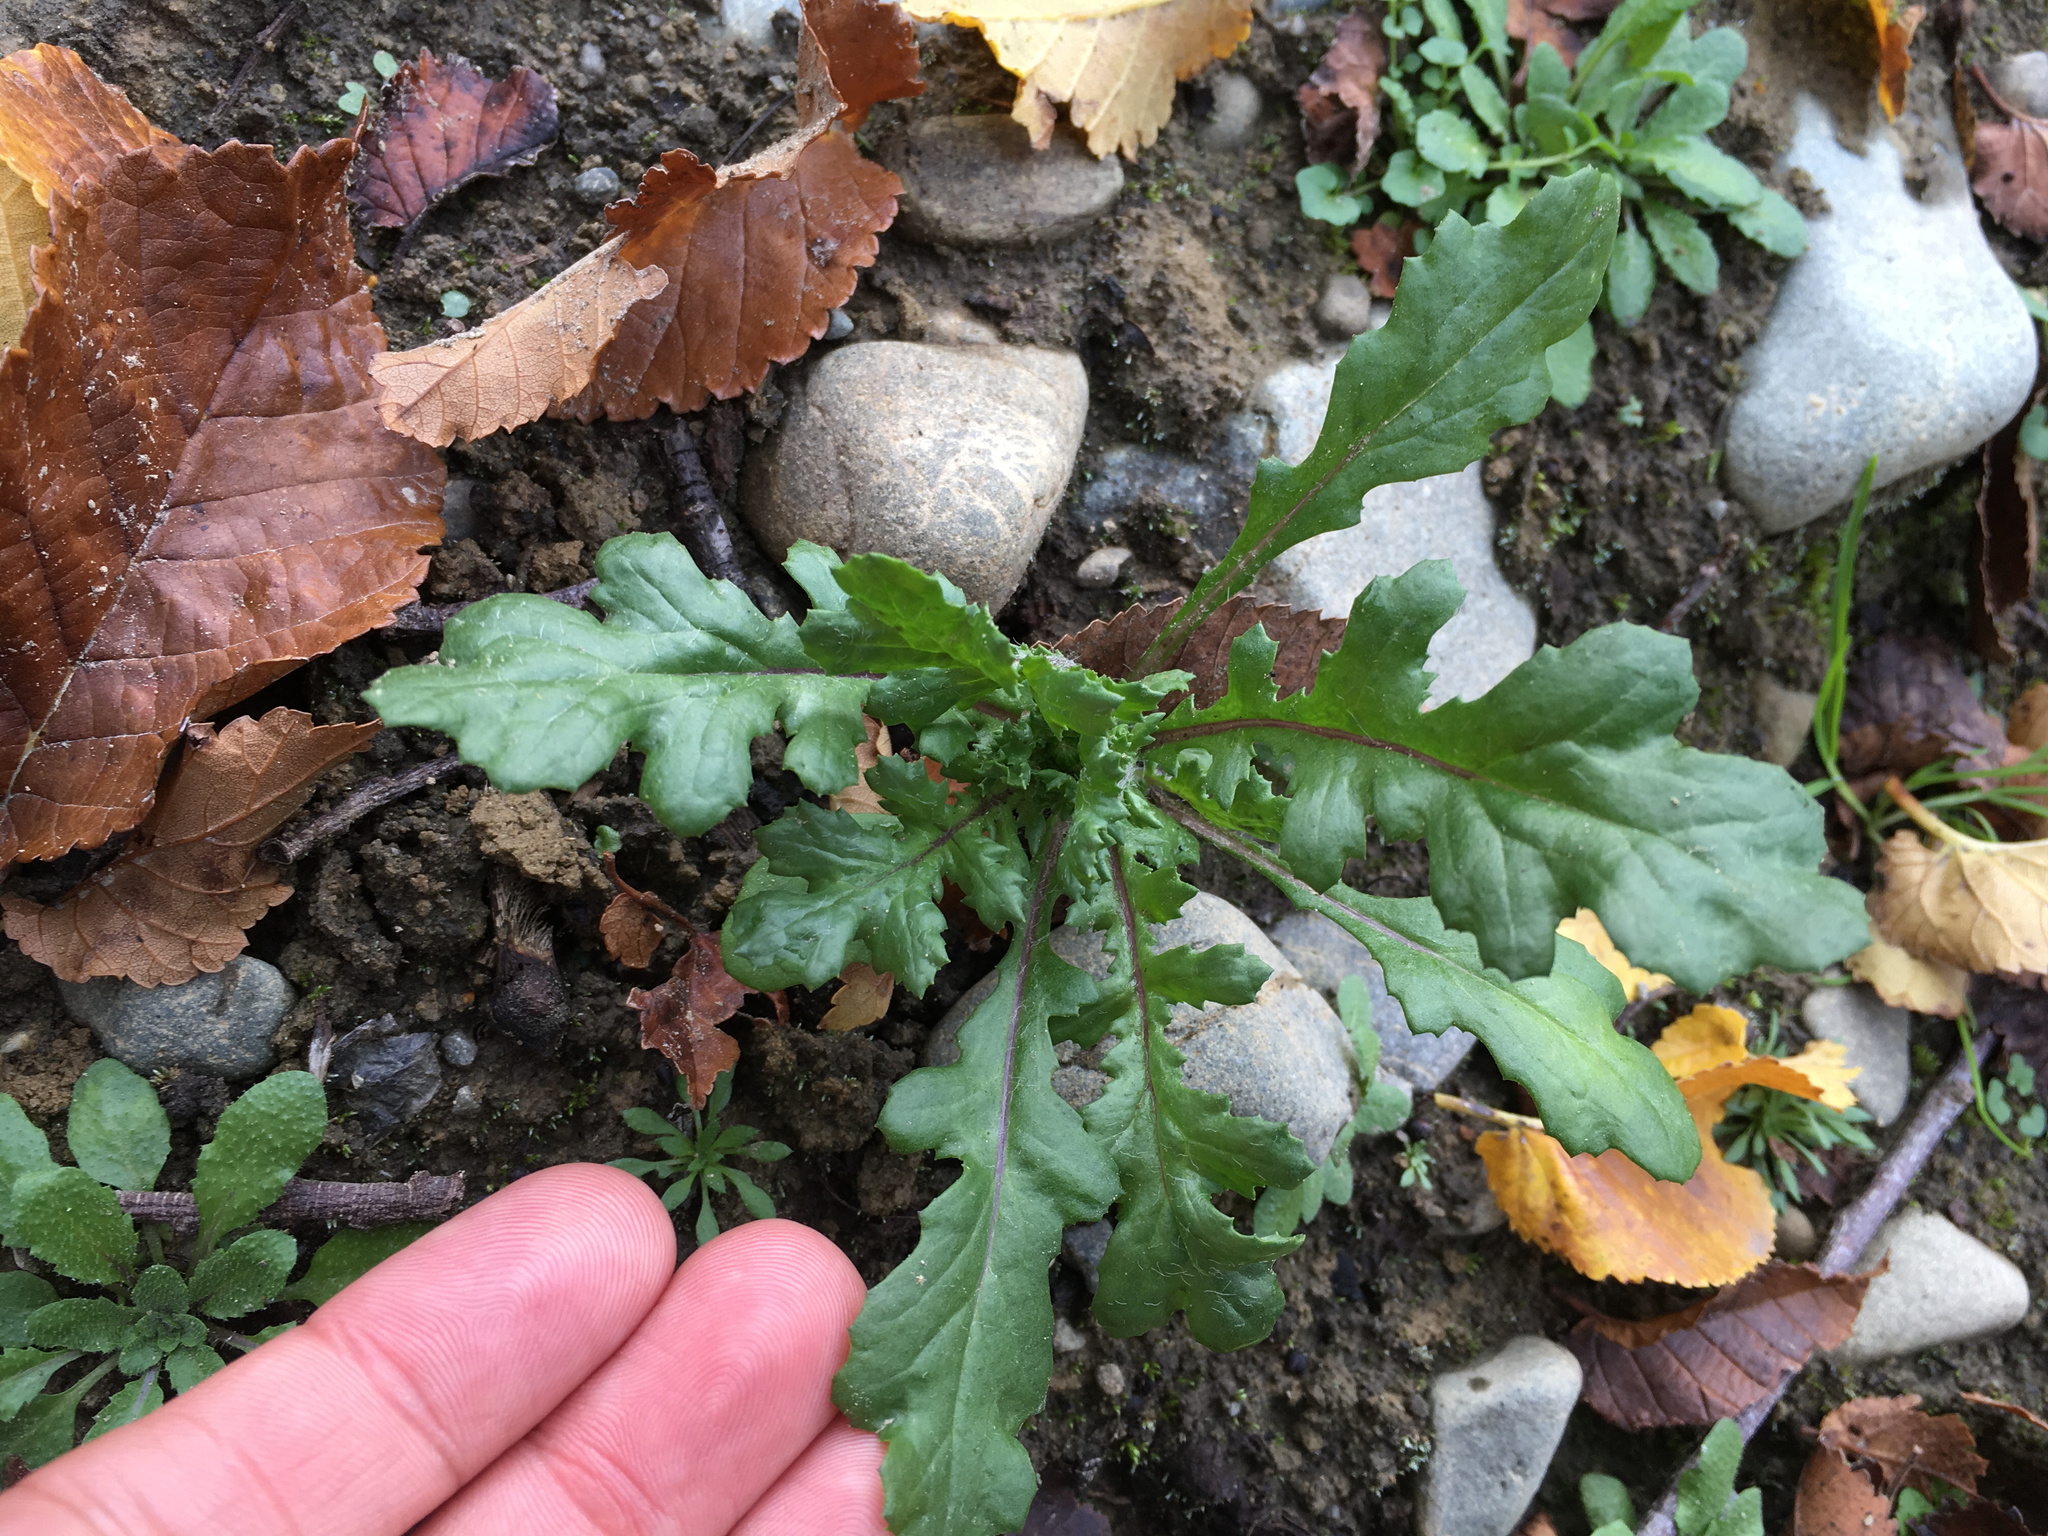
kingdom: Plantae
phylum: Tracheophyta
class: Magnoliopsida
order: Asterales
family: Asteraceae
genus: Senecio
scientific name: Senecio vulgaris
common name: Old-man-in-the-spring
